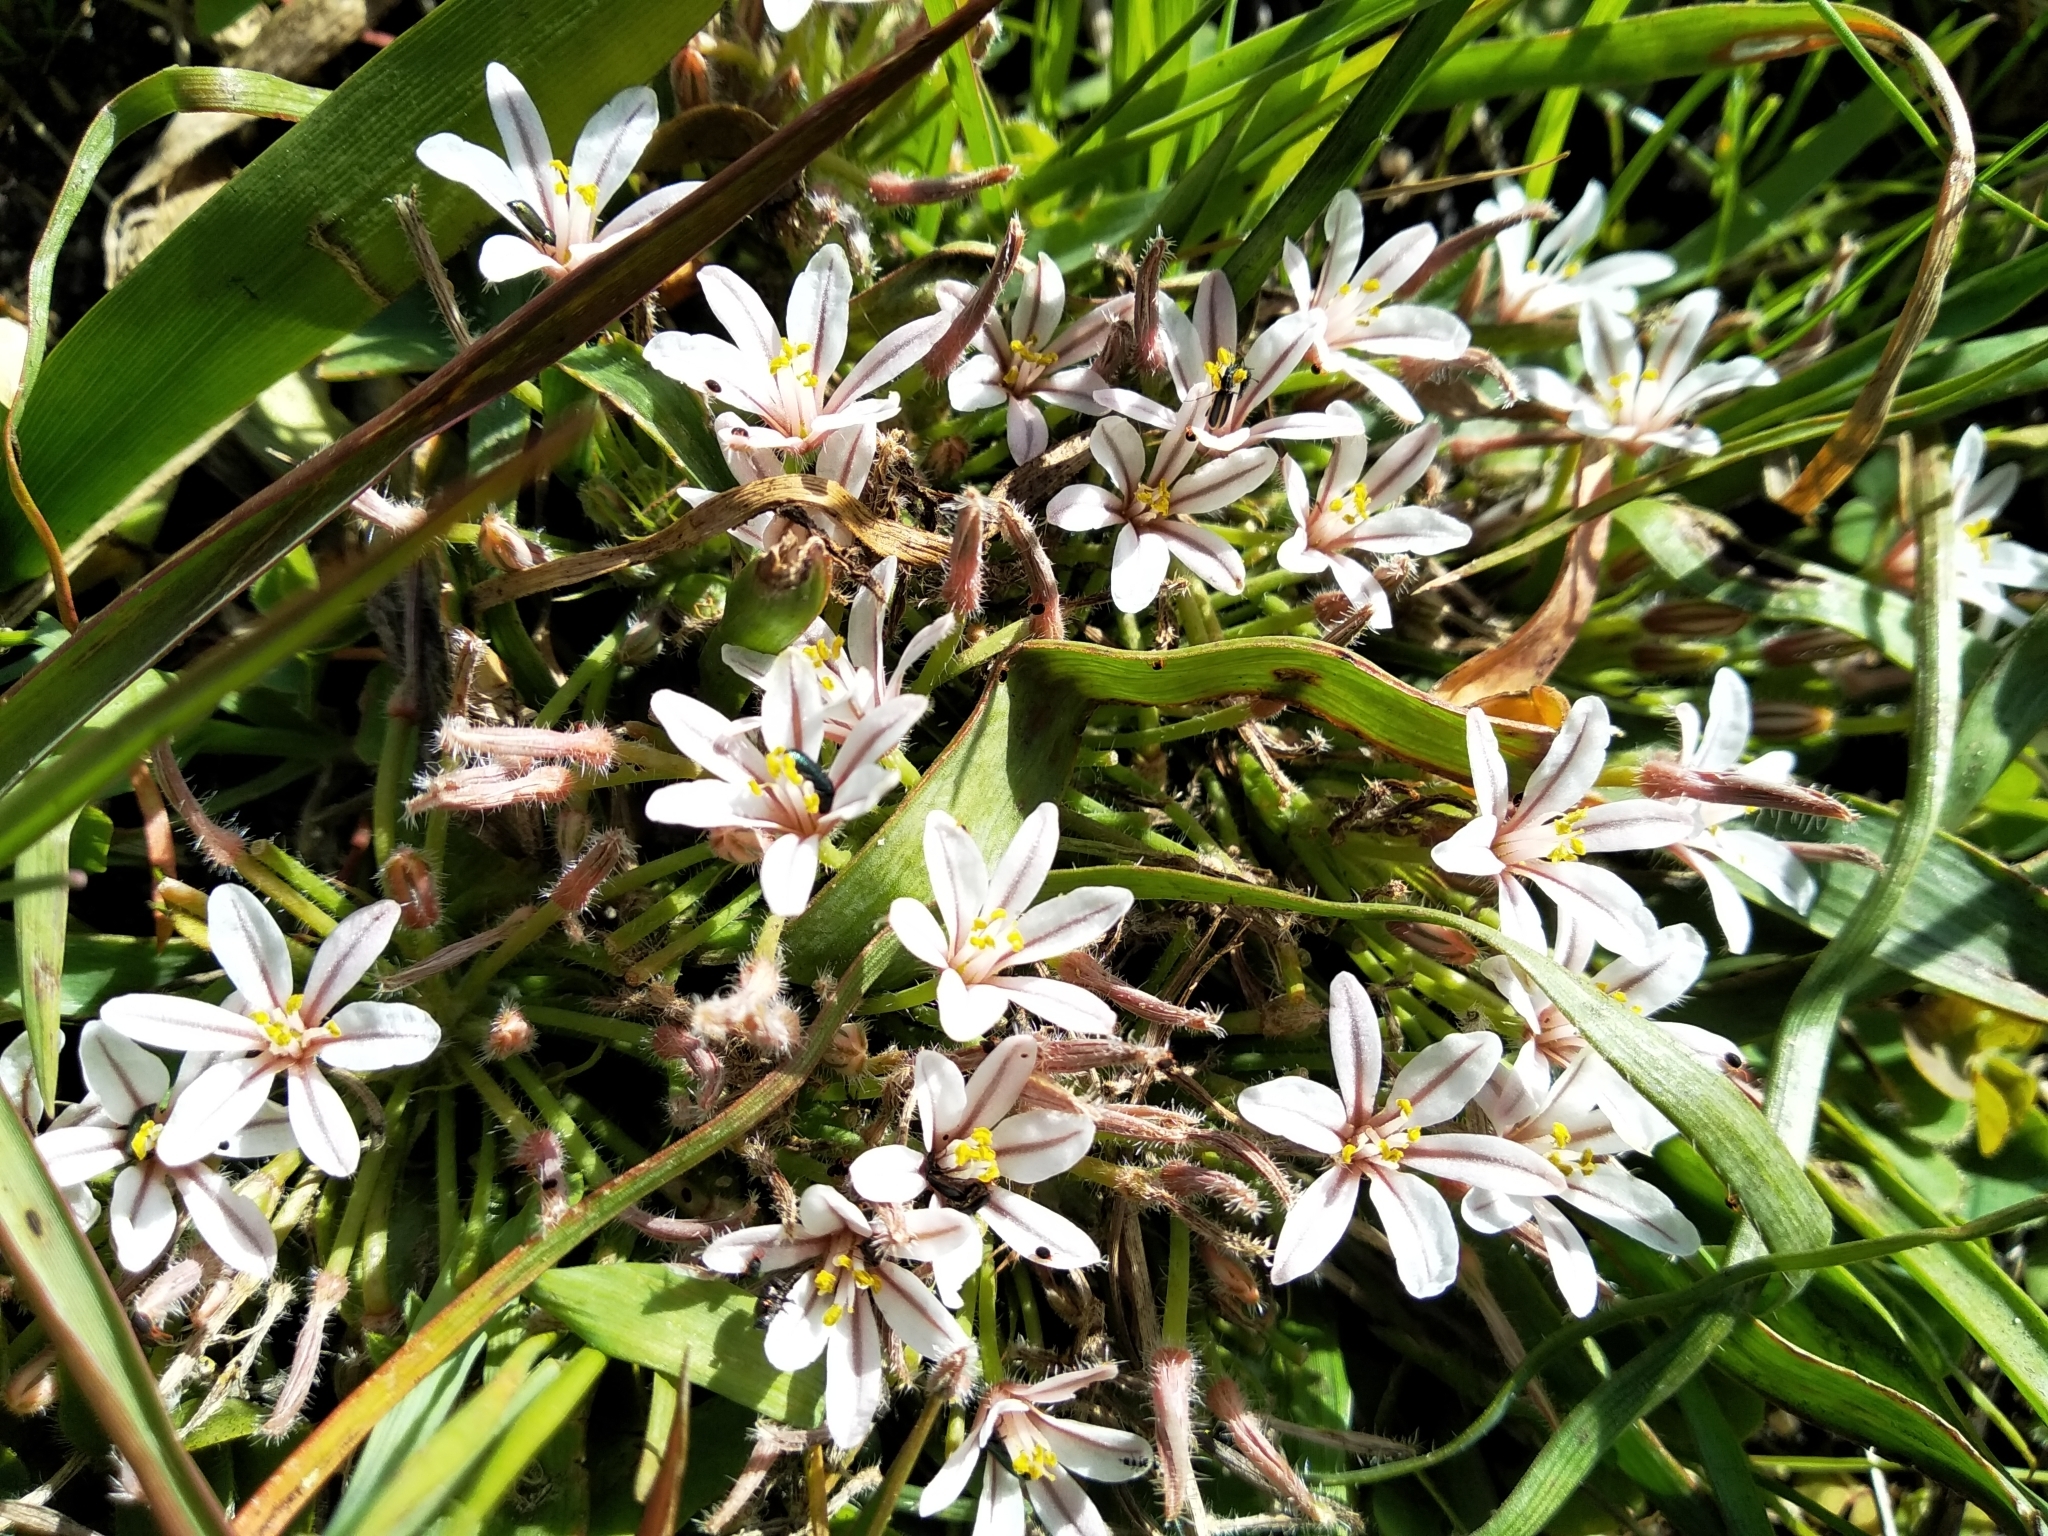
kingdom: Plantae
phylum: Tracheophyta
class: Liliopsida
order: Asparagales
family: Asphodelaceae
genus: Trachyandra
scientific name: Trachyandra hispida
